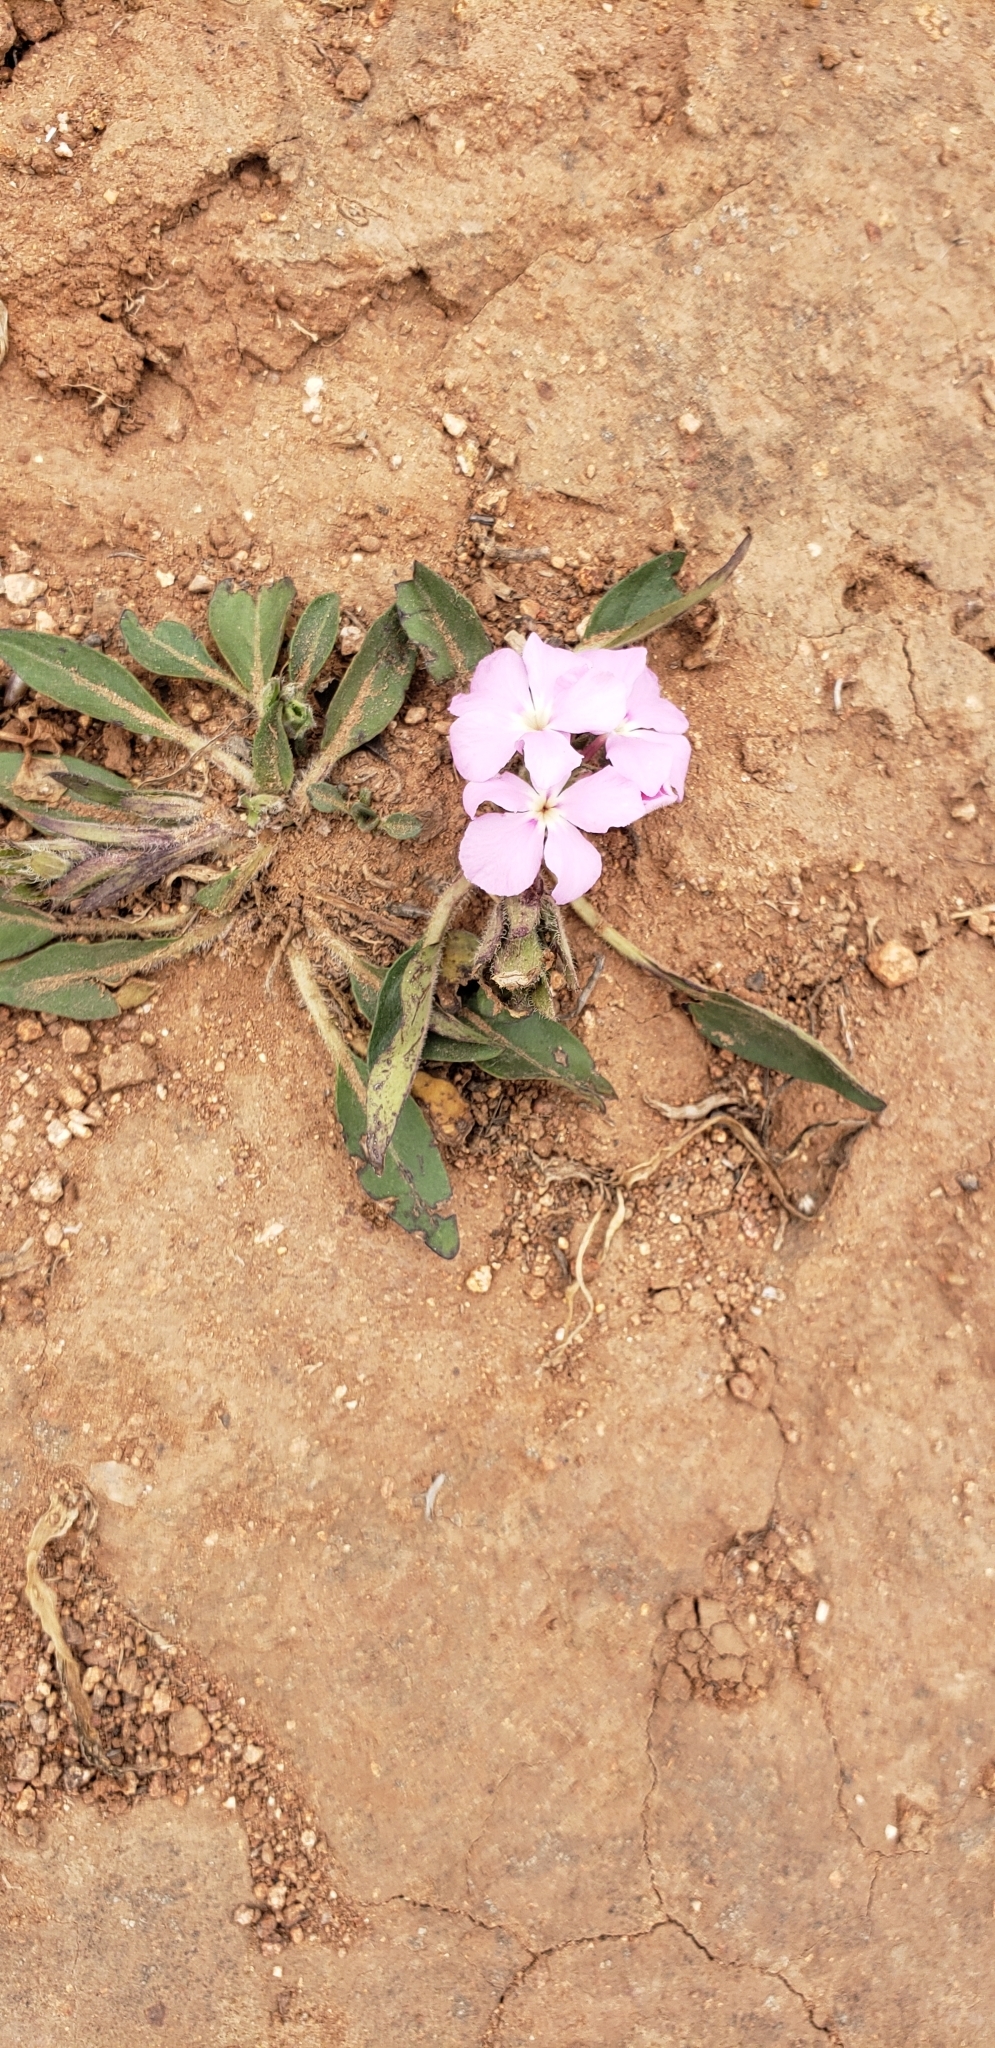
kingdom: Plantae
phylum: Tracheophyta
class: Magnoliopsida
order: Lamiales
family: Acanthaceae
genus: Stenandrium
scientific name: Stenandrium dulce
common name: Pinklet
